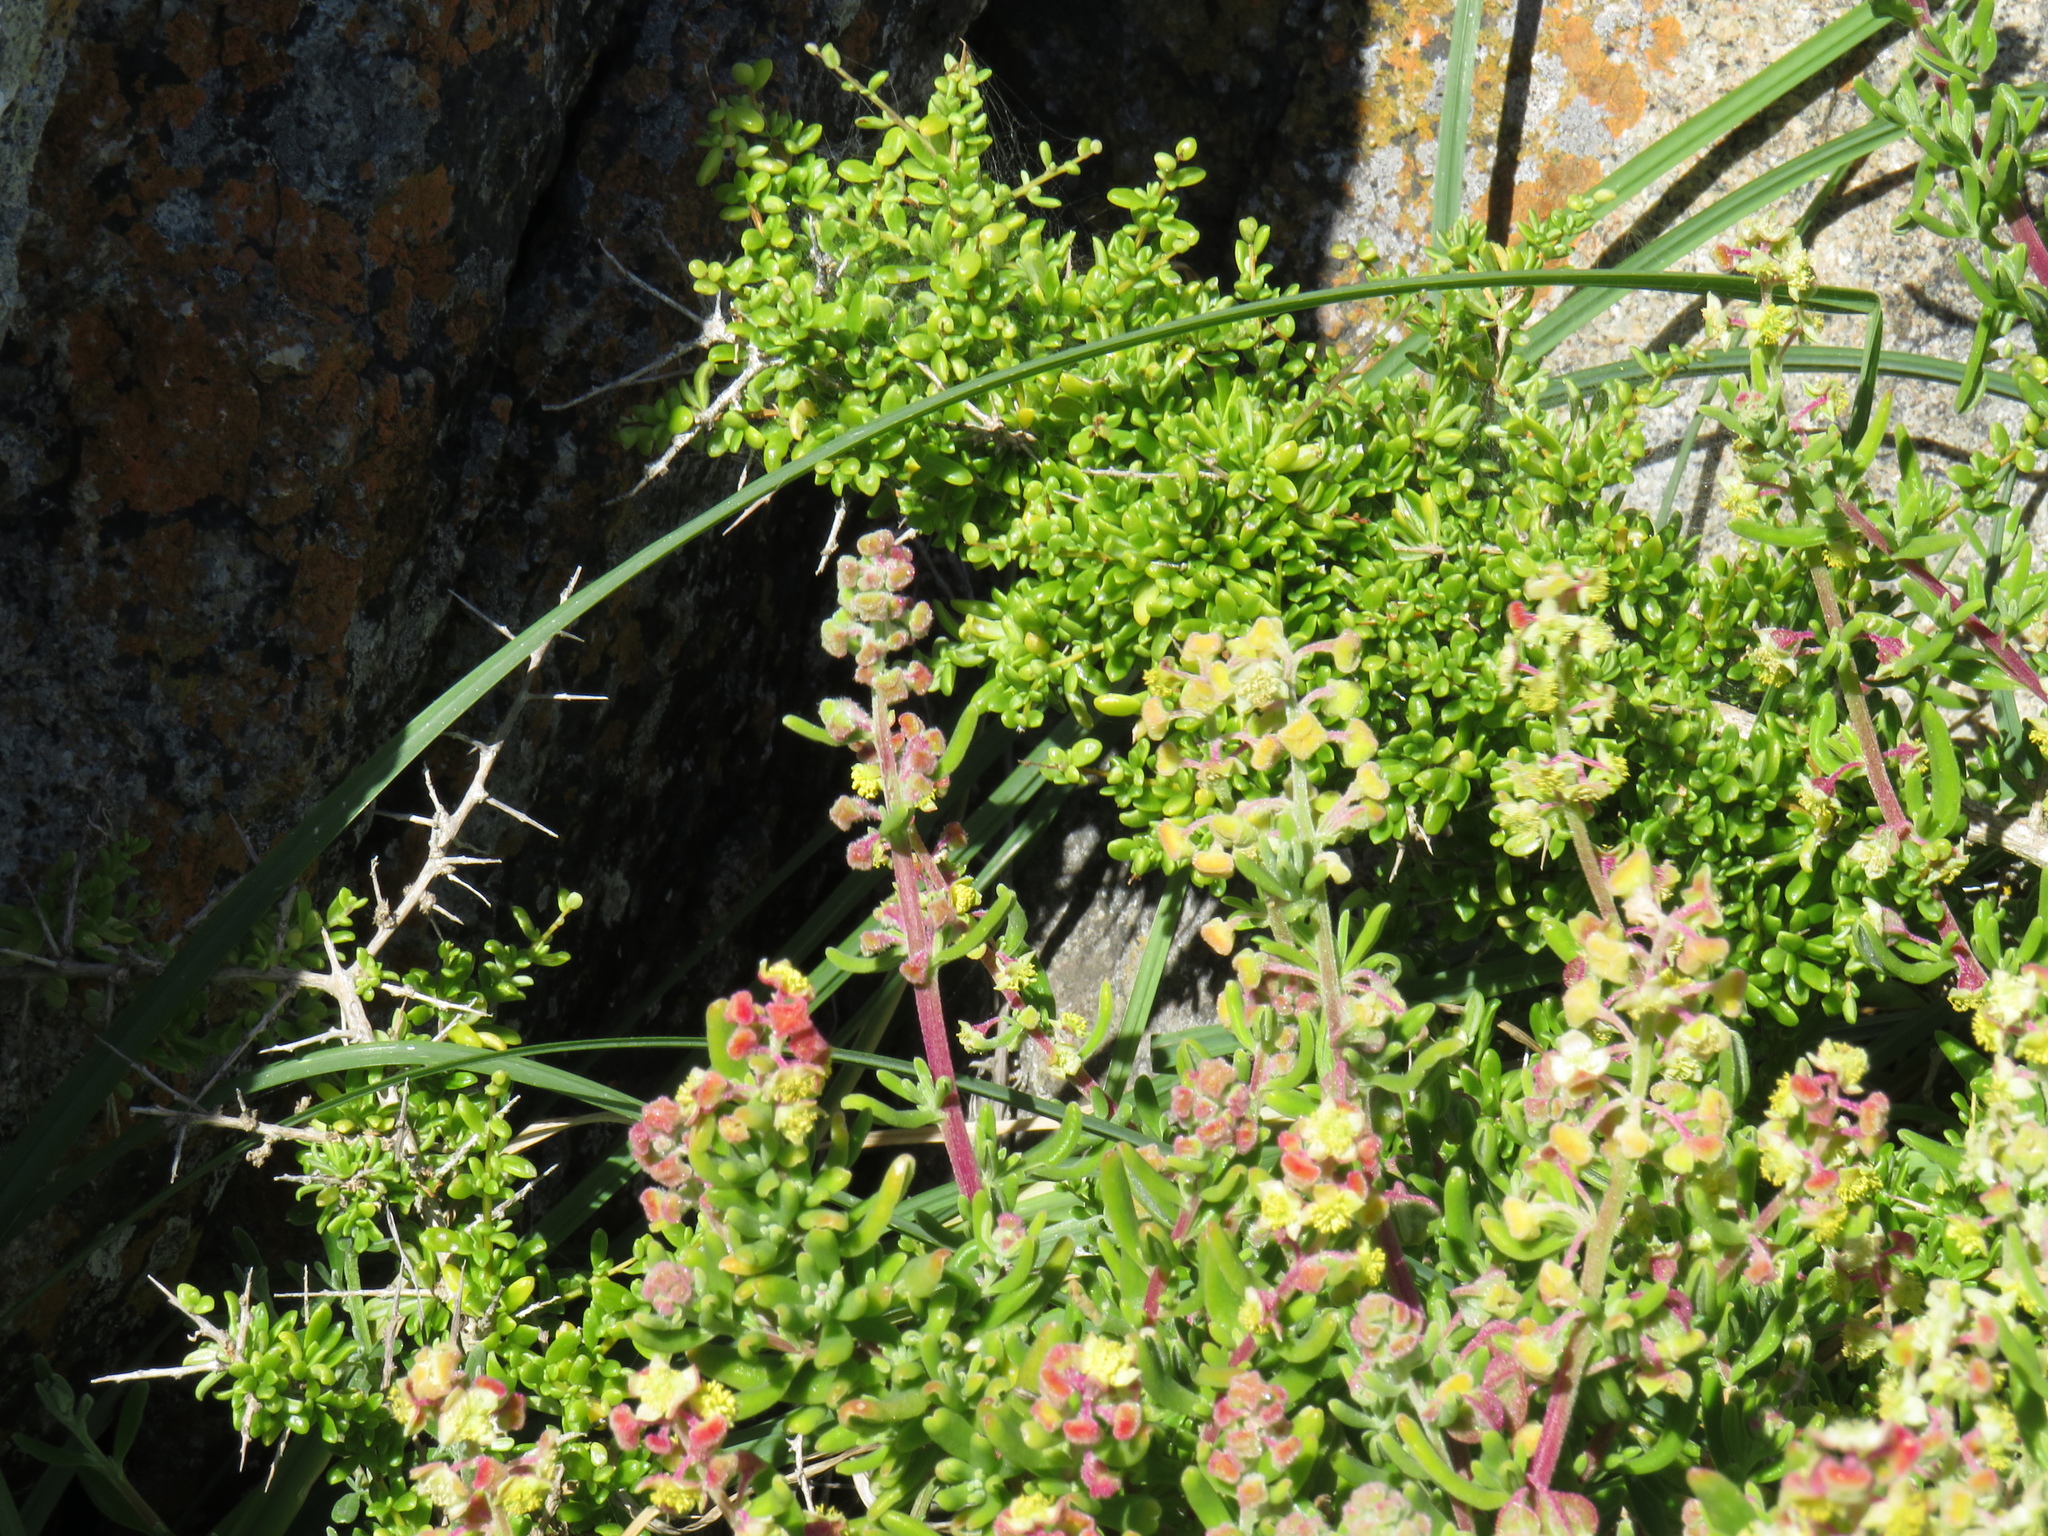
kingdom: Plantae
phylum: Tracheophyta
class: Liliopsida
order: Asparagales
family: Iridaceae
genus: Gladiolus
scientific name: Gladiolus caeruleus
